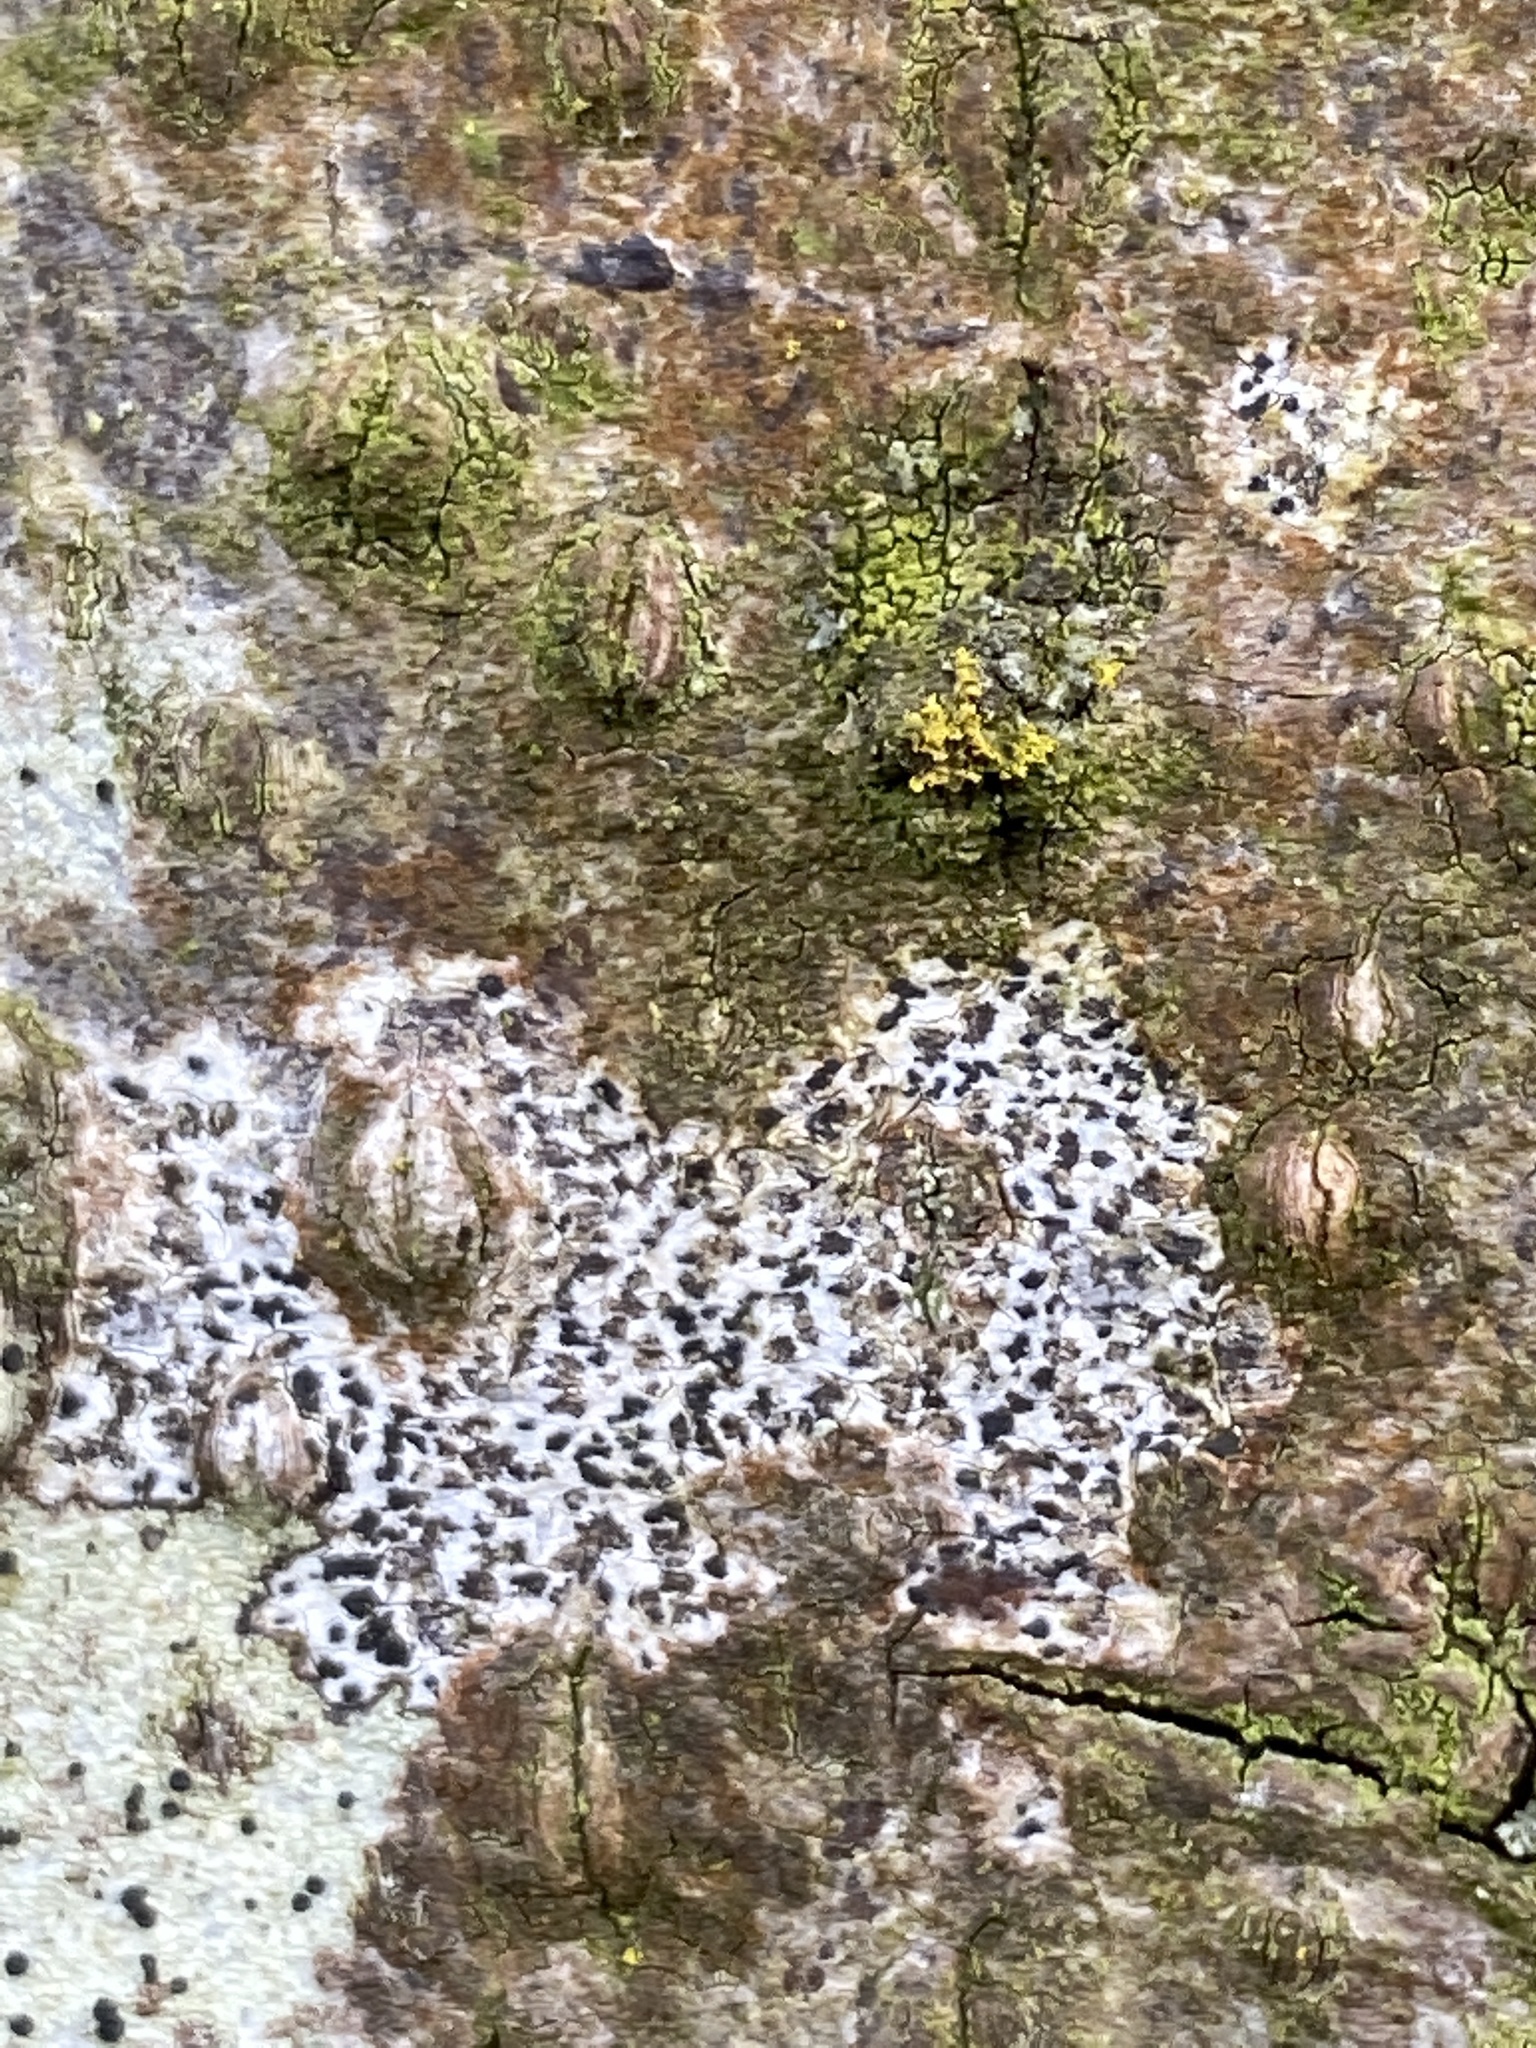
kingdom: Fungi
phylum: Ascomycota
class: Arthoniomycetes
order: Arthoniales
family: Arthoniaceae
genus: Arthonia
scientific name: Arthonia radiata
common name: Asterisk lichen
